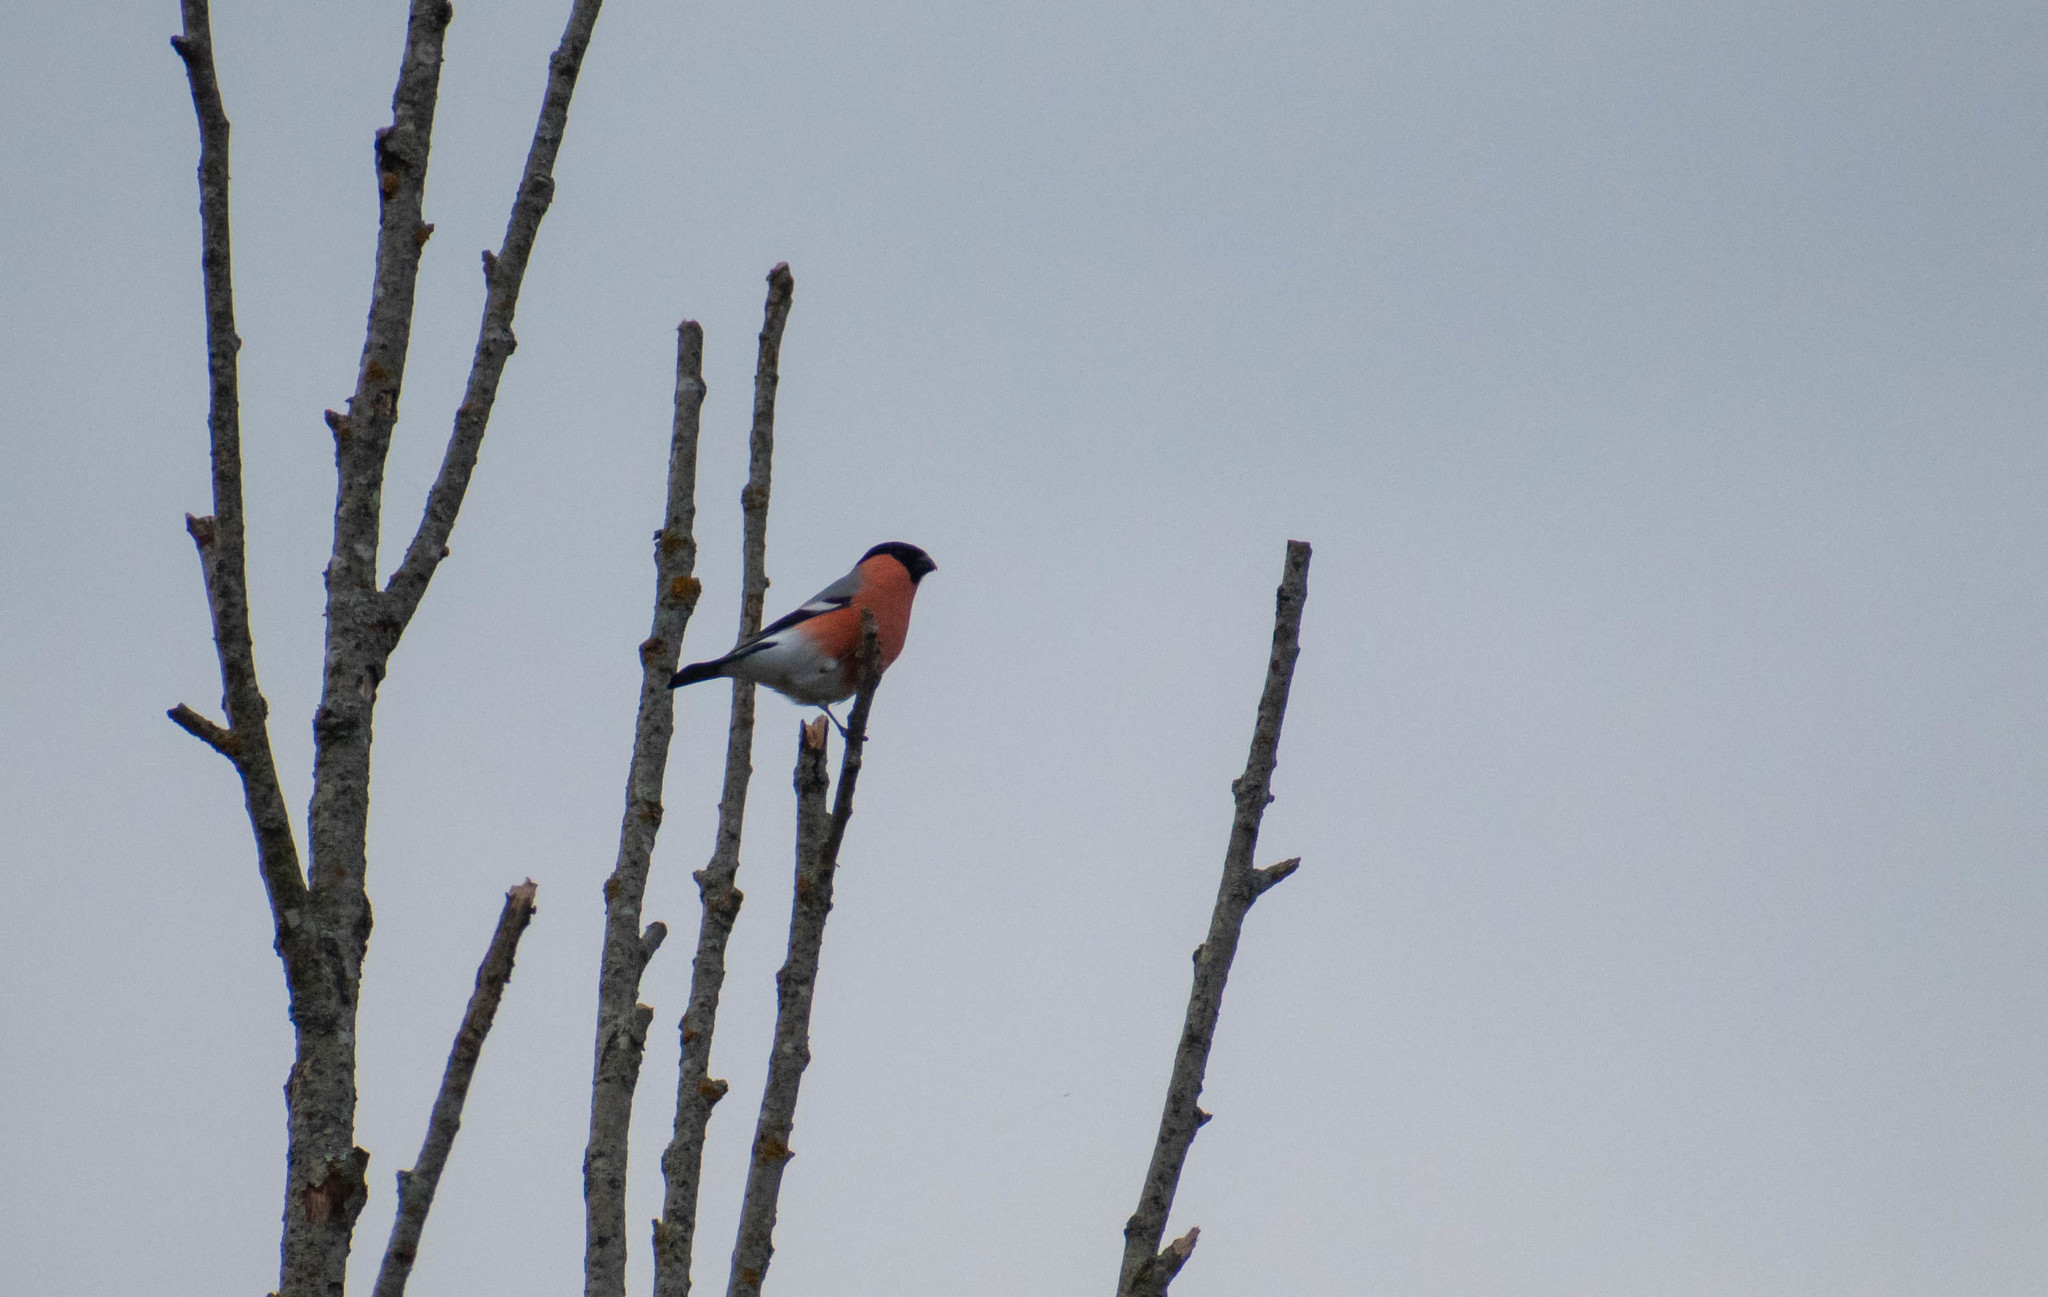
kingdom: Animalia
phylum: Chordata
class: Aves
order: Passeriformes
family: Fringillidae
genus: Pyrrhula
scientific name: Pyrrhula pyrrhula
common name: Eurasian bullfinch
